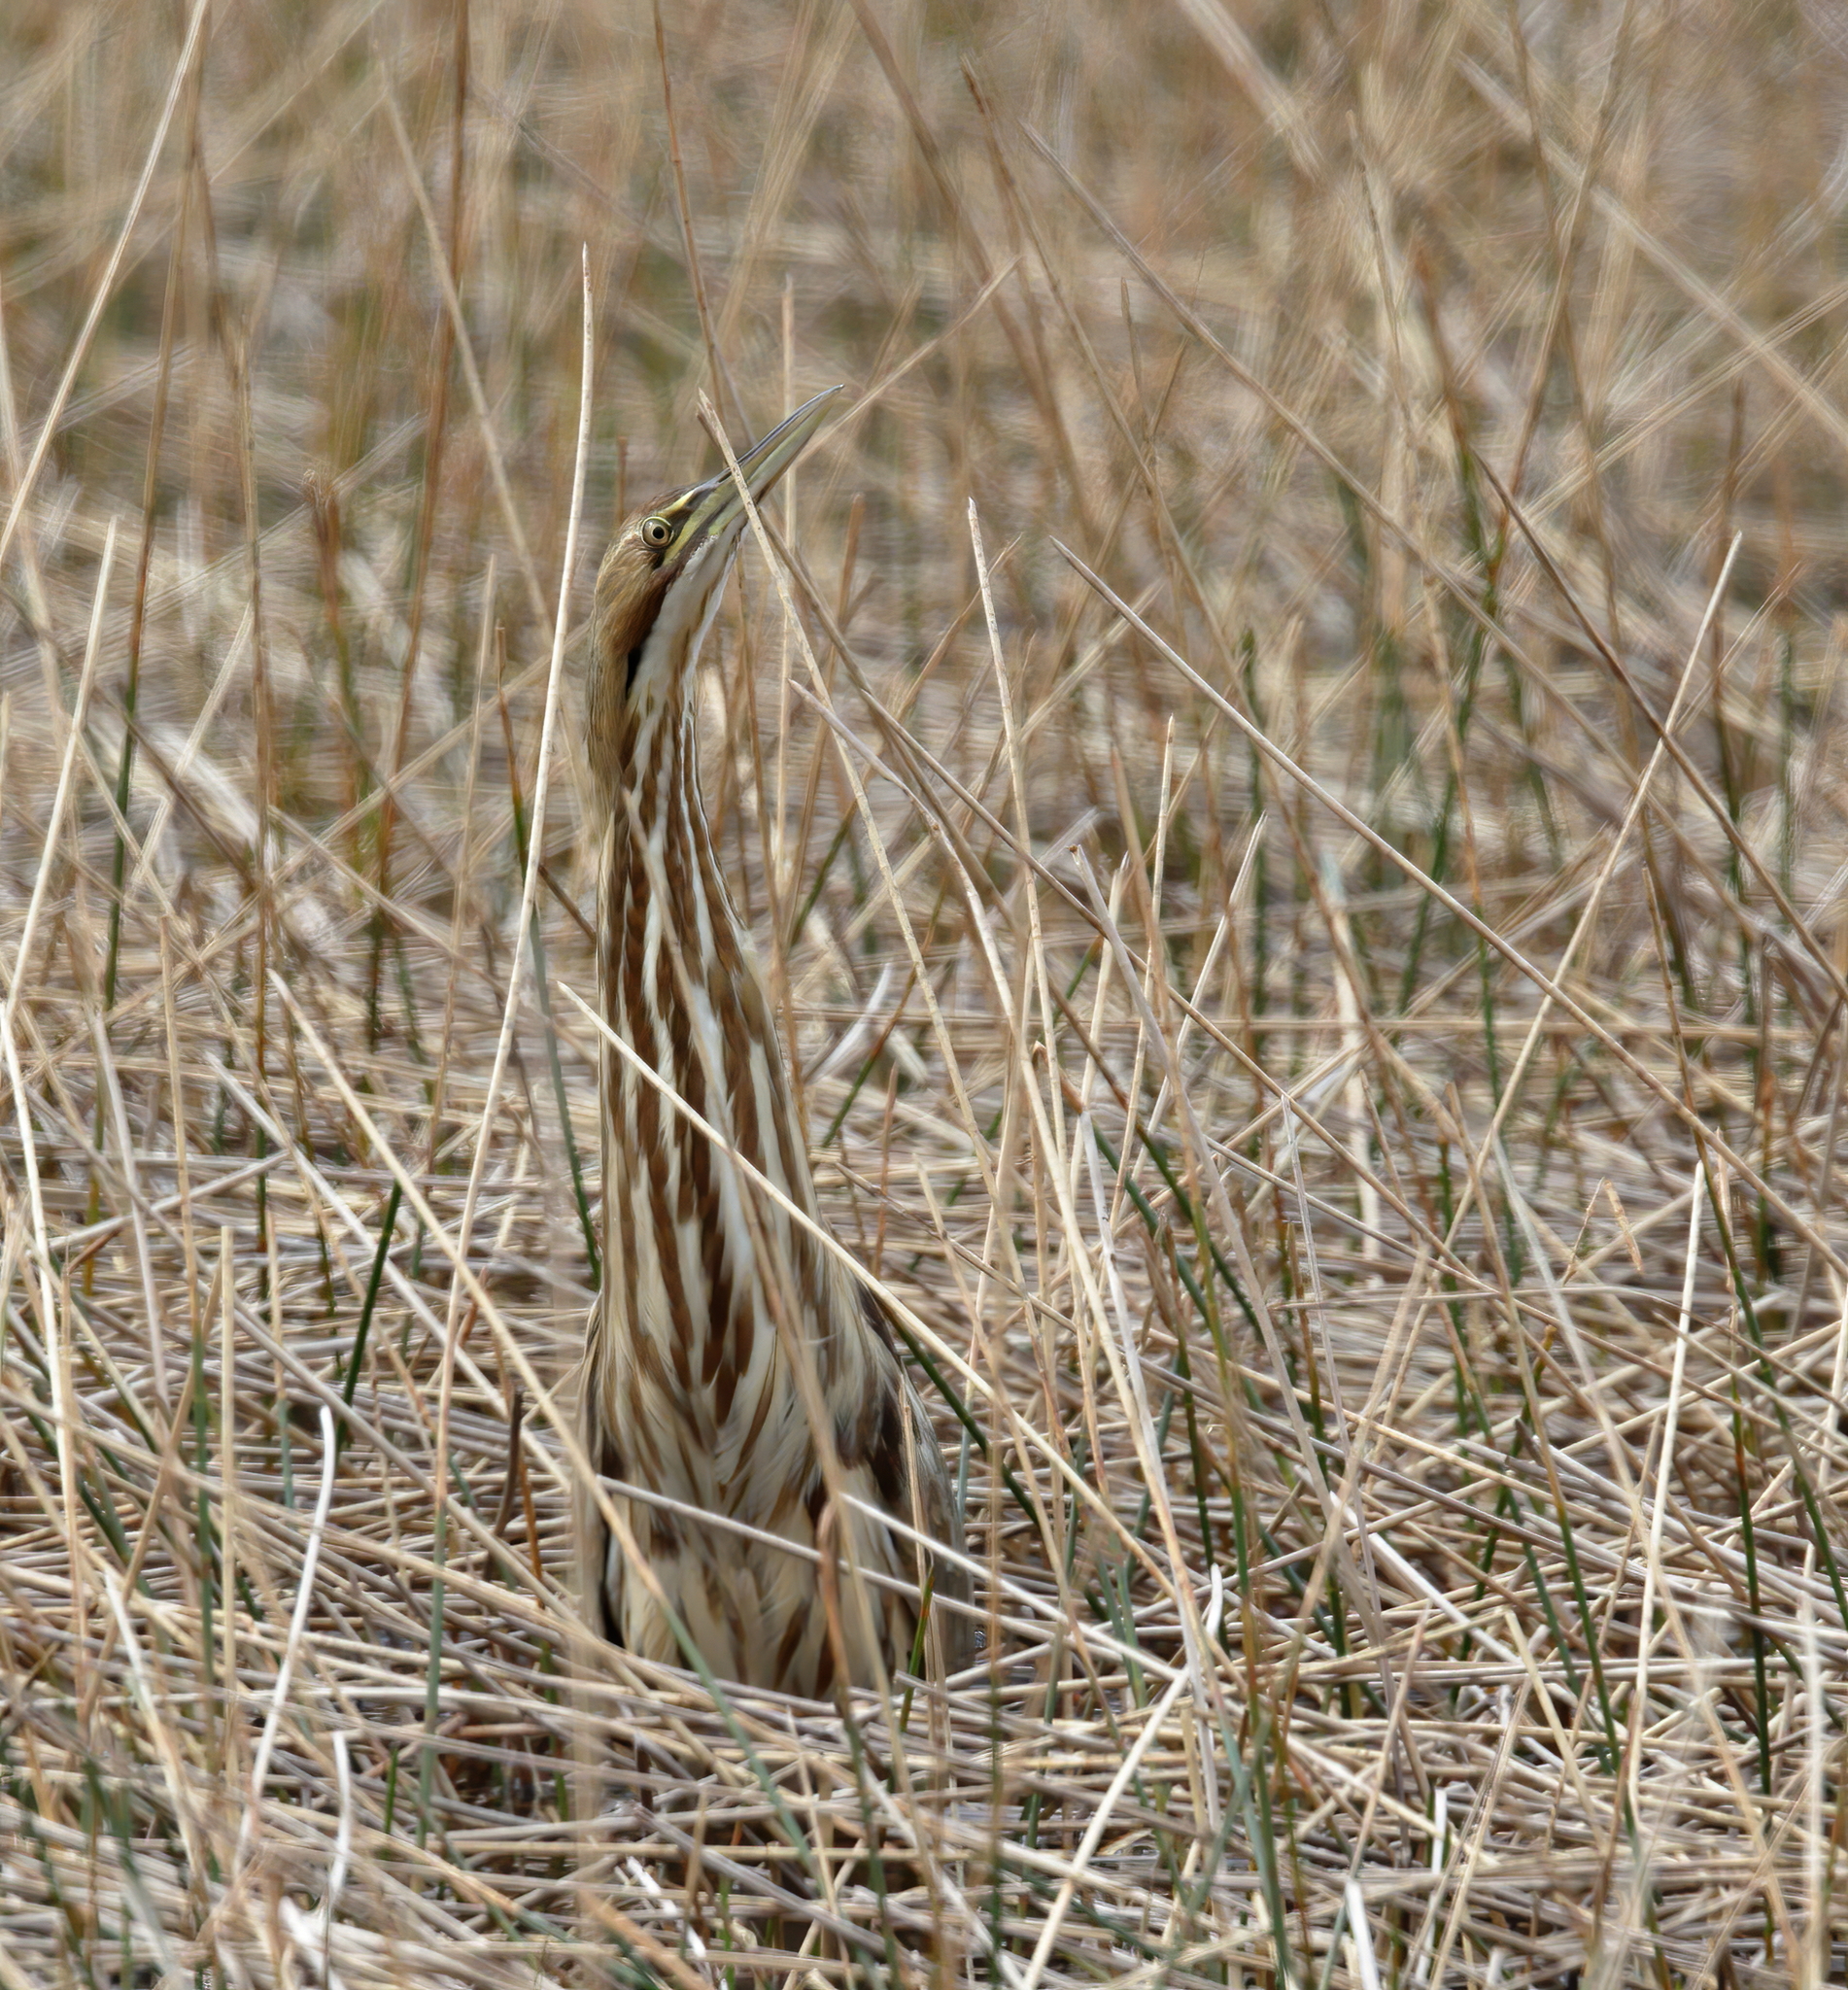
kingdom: Animalia
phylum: Chordata
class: Aves
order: Pelecaniformes
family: Ardeidae
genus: Botaurus
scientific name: Botaurus lentiginosus
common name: American bittern
